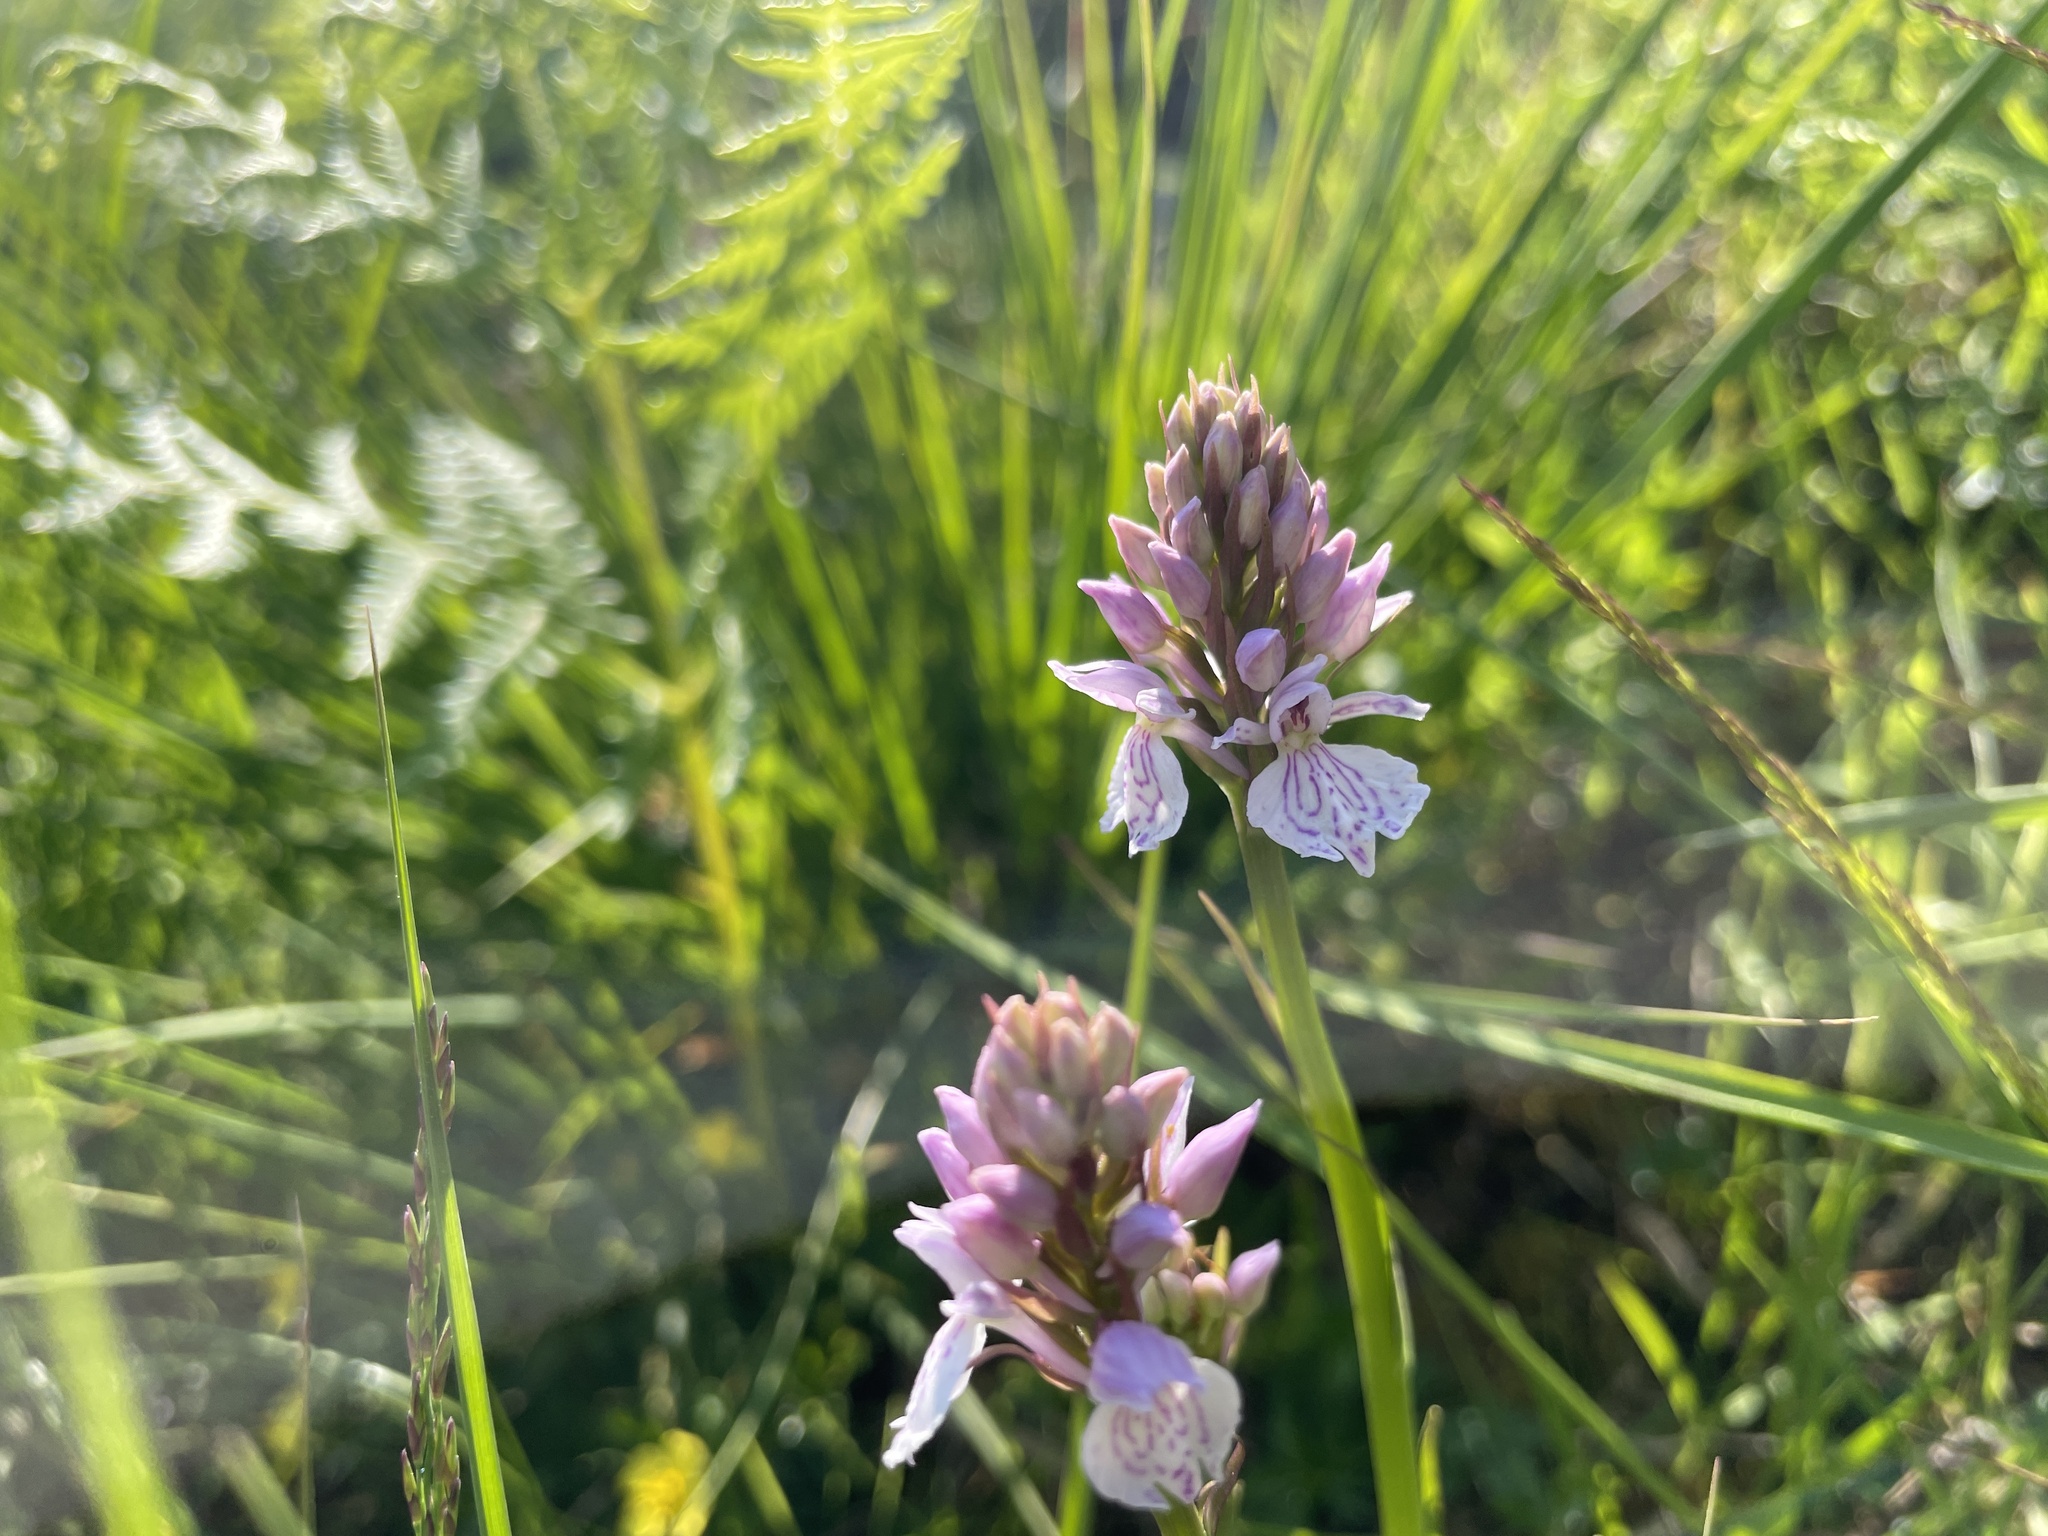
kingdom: Plantae
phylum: Tracheophyta
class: Liliopsida
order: Asparagales
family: Orchidaceae
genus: Dactylorhiza
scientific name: Dactylorhiza maculata
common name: Heath spotted-orchid
